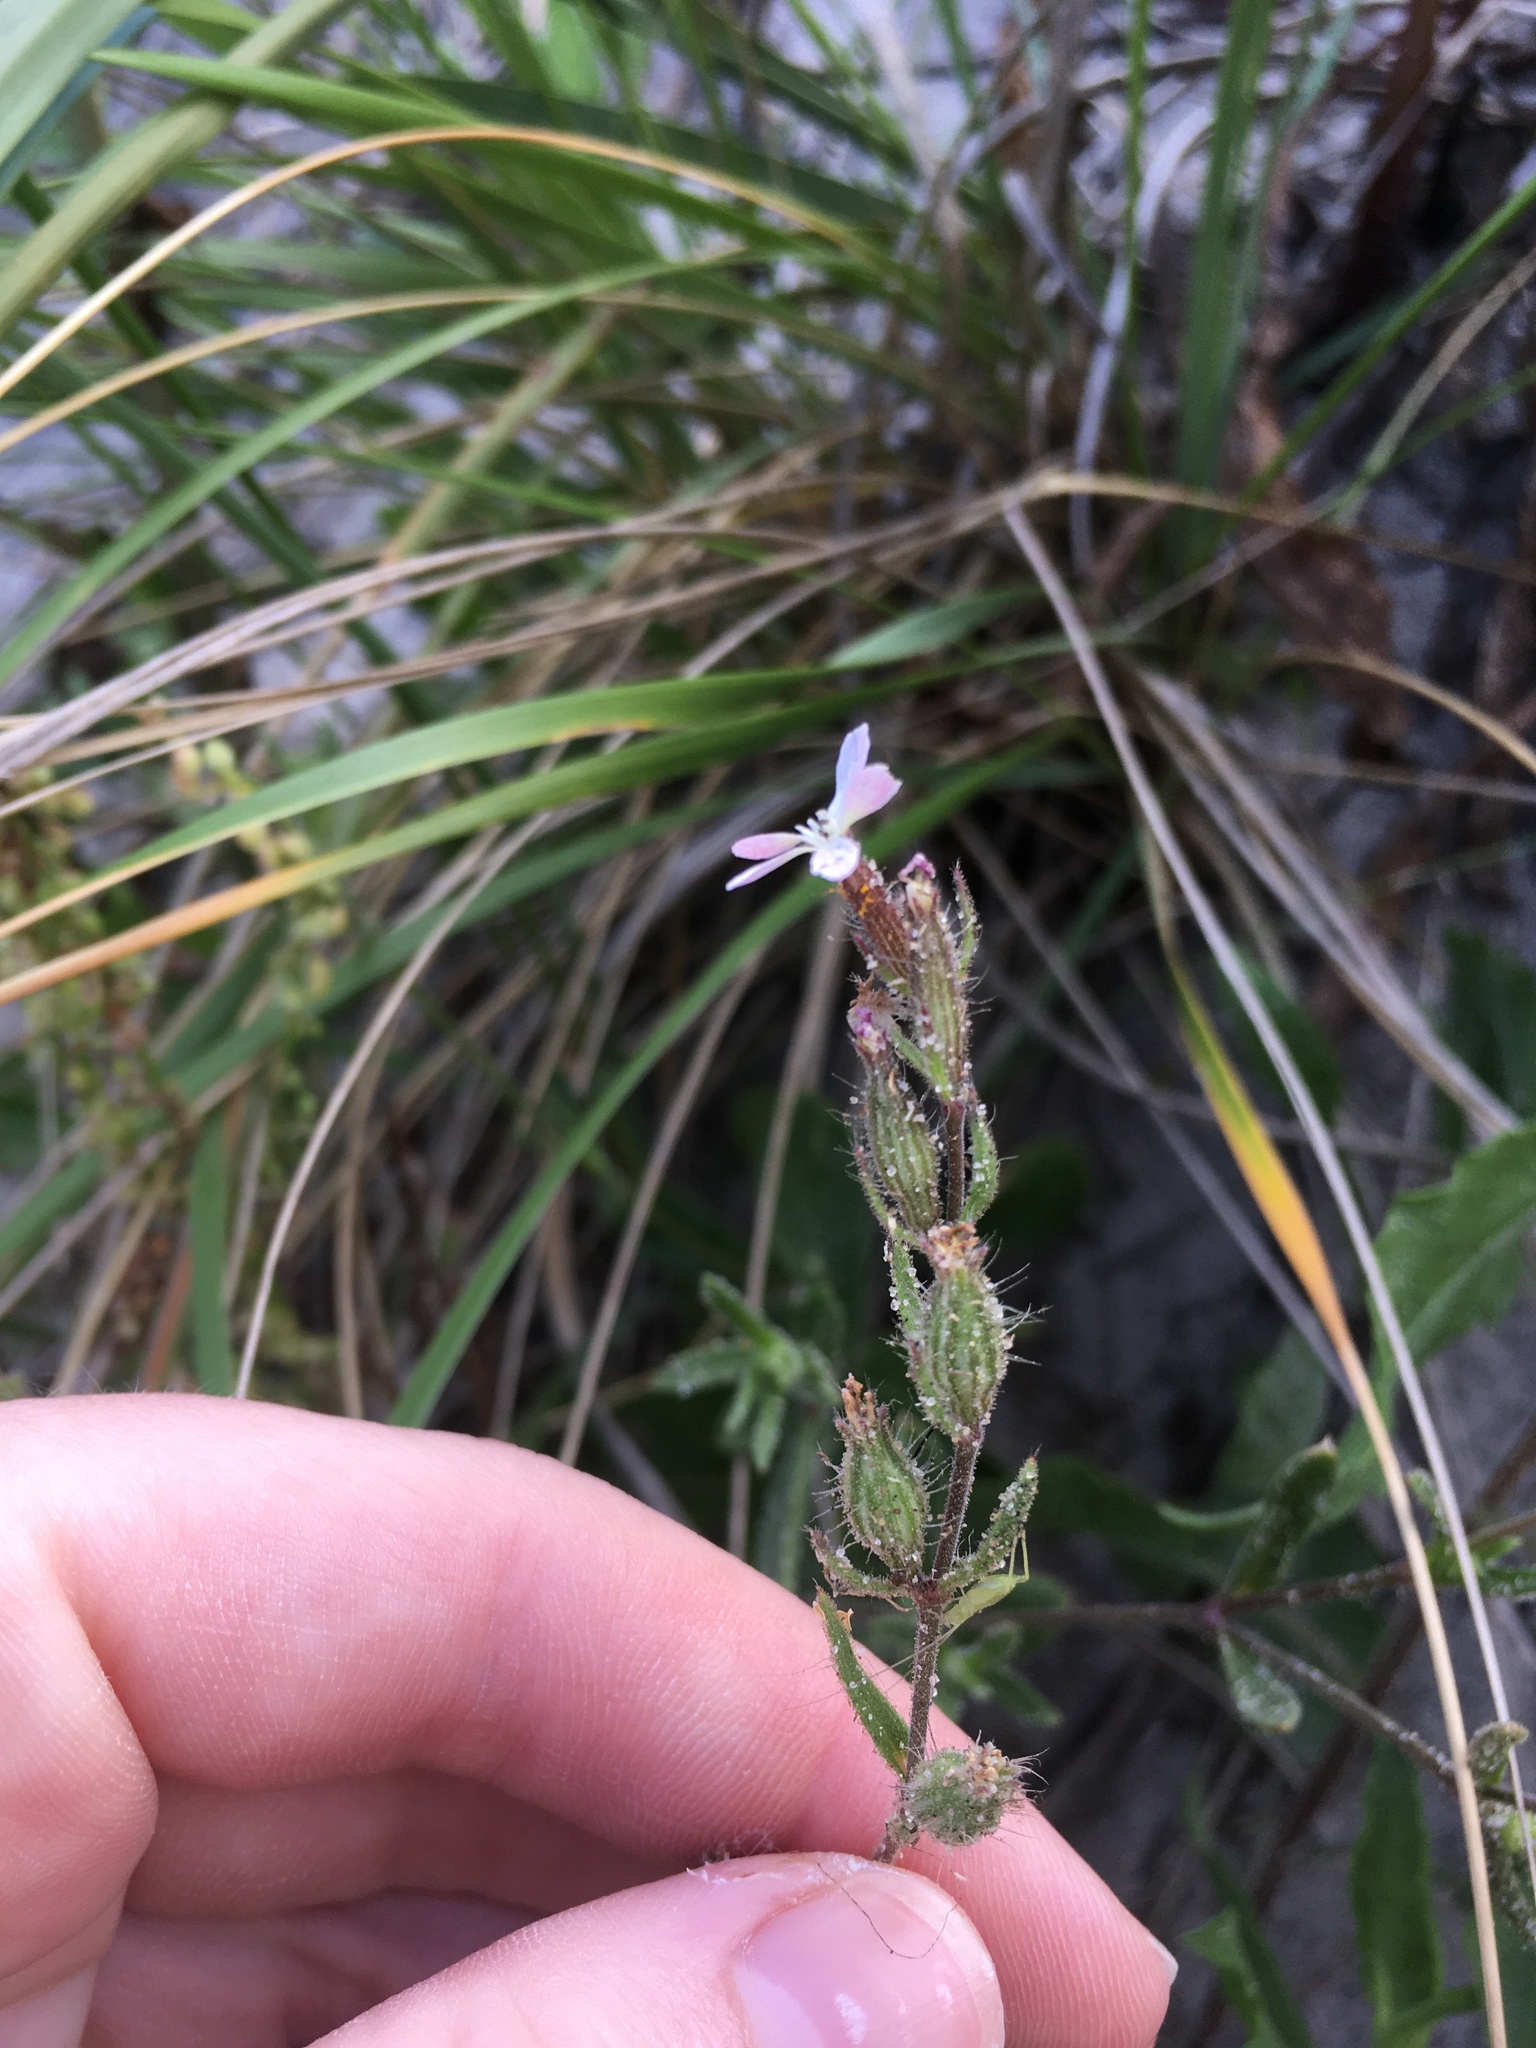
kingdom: Plantae
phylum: Tracheophyta
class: Magnoliopsida
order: Caryophyllales
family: Caryophyllaceae
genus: Silene
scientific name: Silene gallica
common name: Small-flowered catchfly
